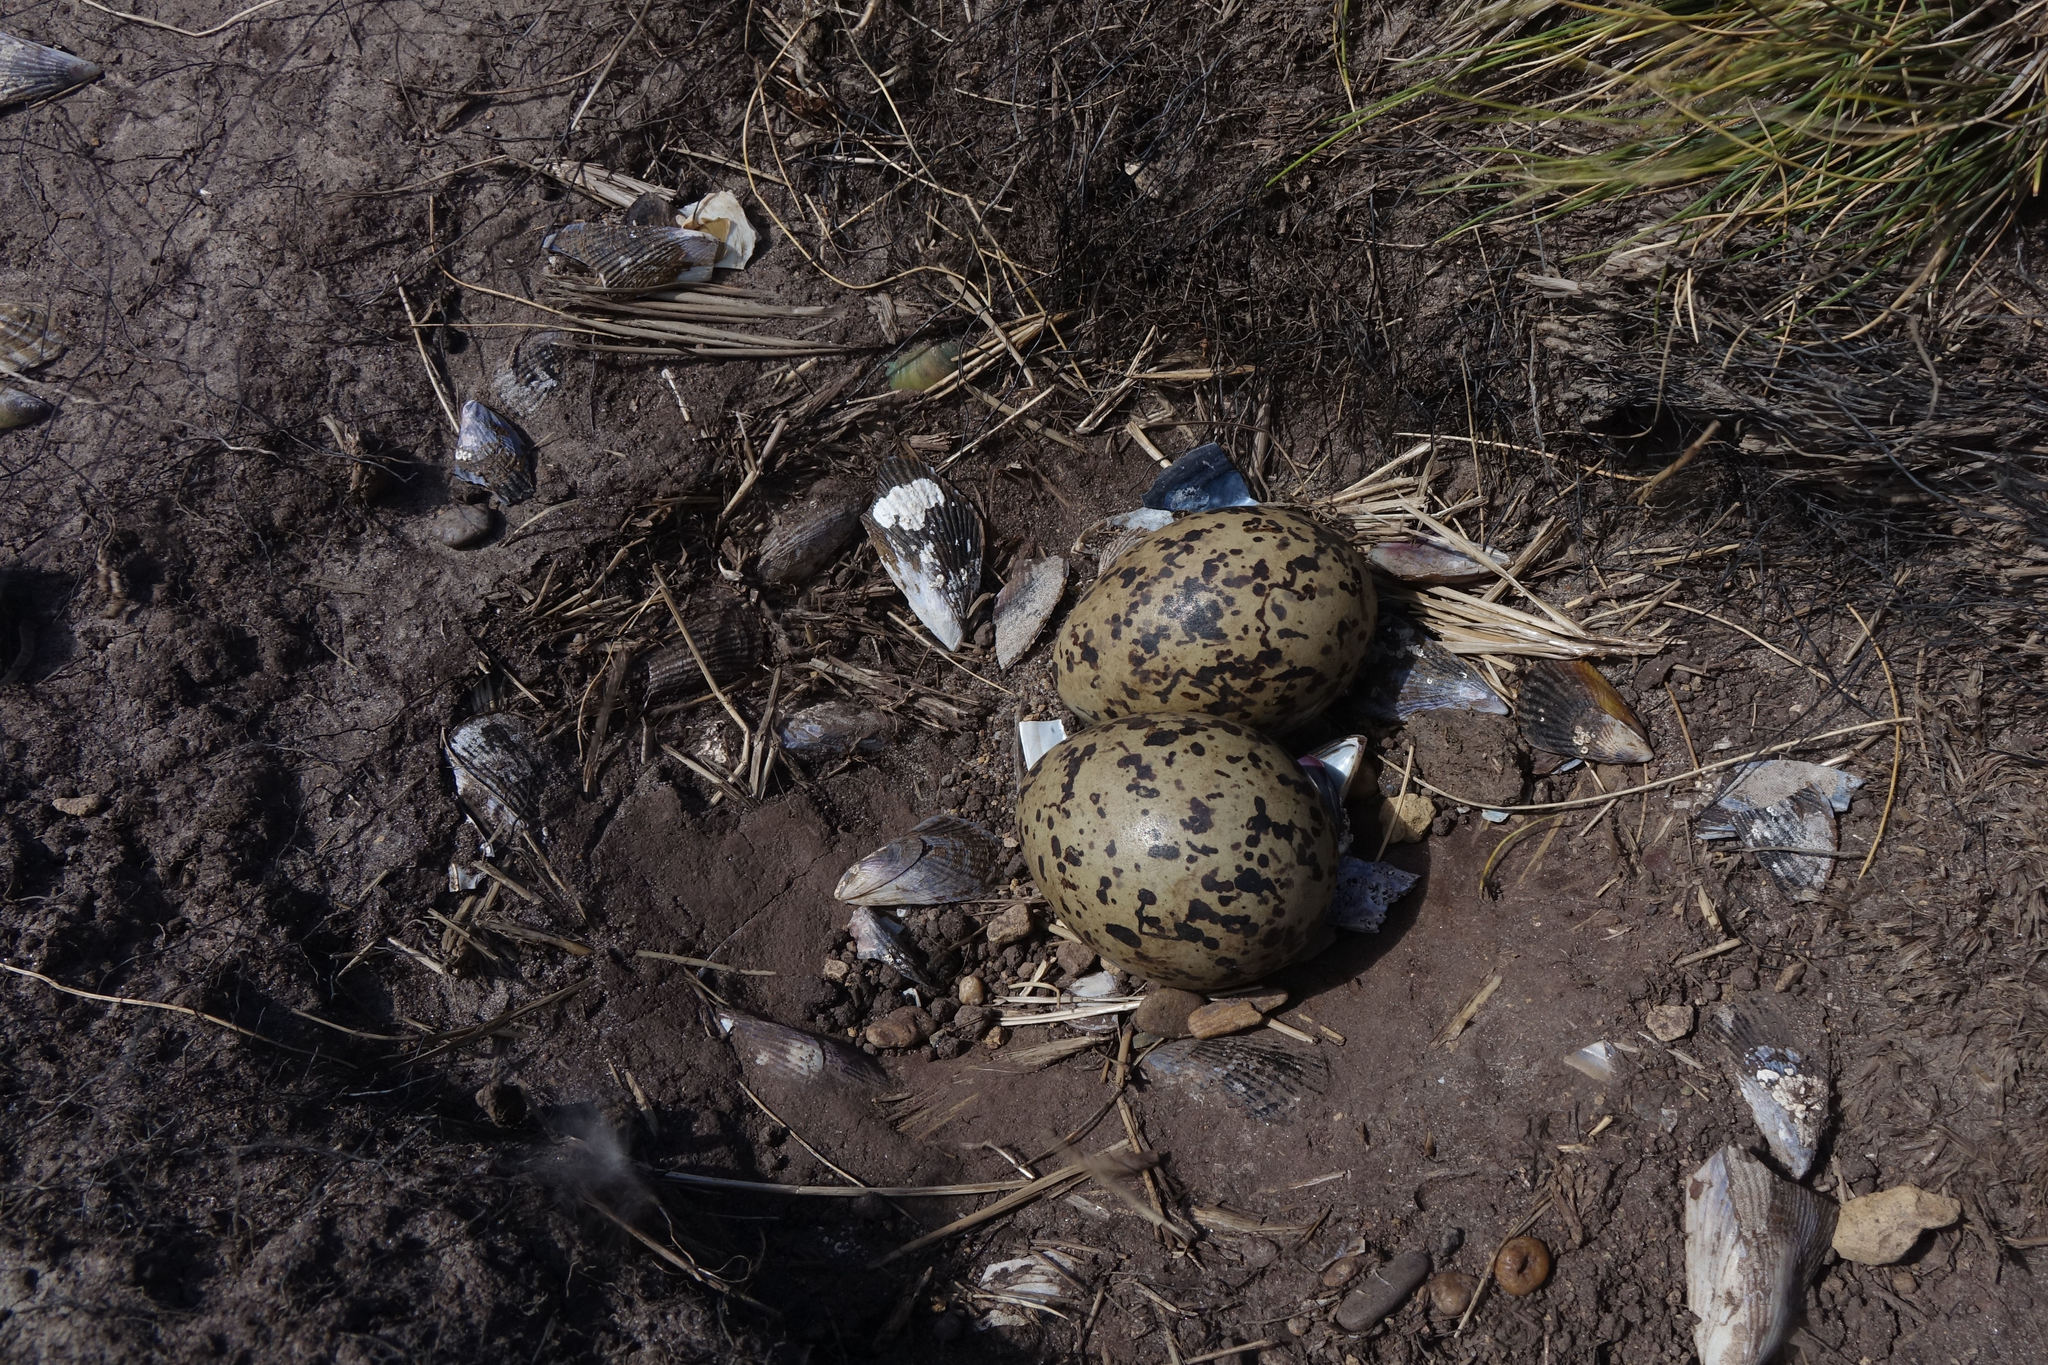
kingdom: Animalia
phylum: Chordata
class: Aves
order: Charadriiformes
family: Haematopodidae
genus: Haematopus
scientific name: Haematopus unicolor
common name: Variable oystercatcher
